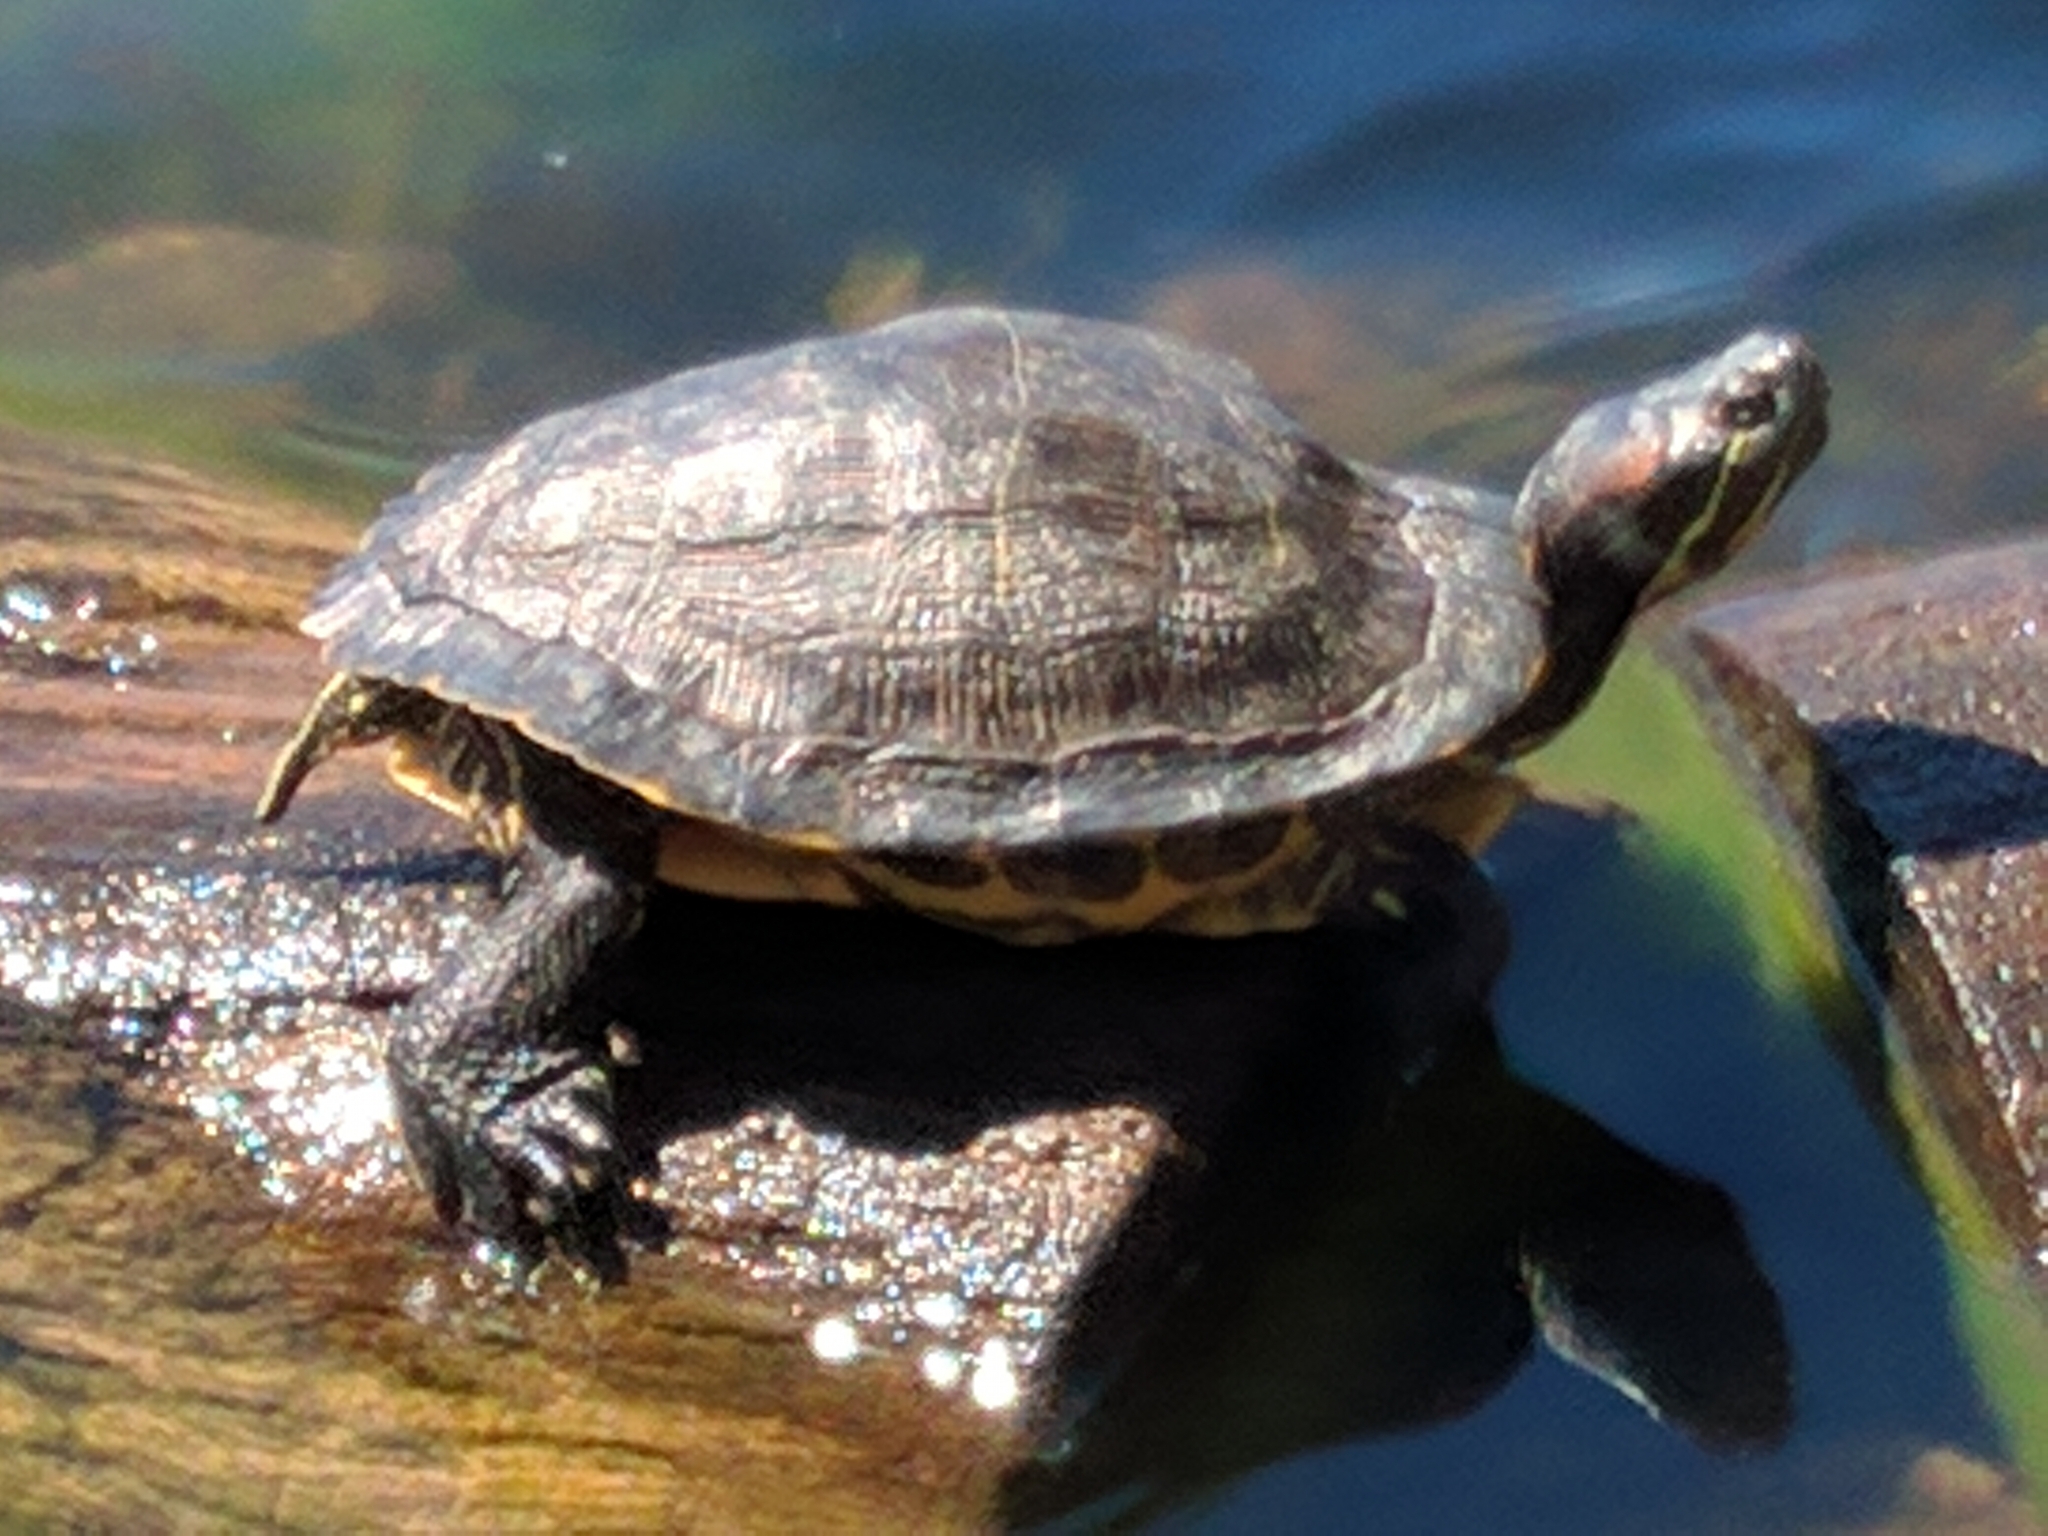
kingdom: Animalia
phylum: Chordata
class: Testudines
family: Emydidae
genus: Trachemys
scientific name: Trachemys scripta
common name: Slider
